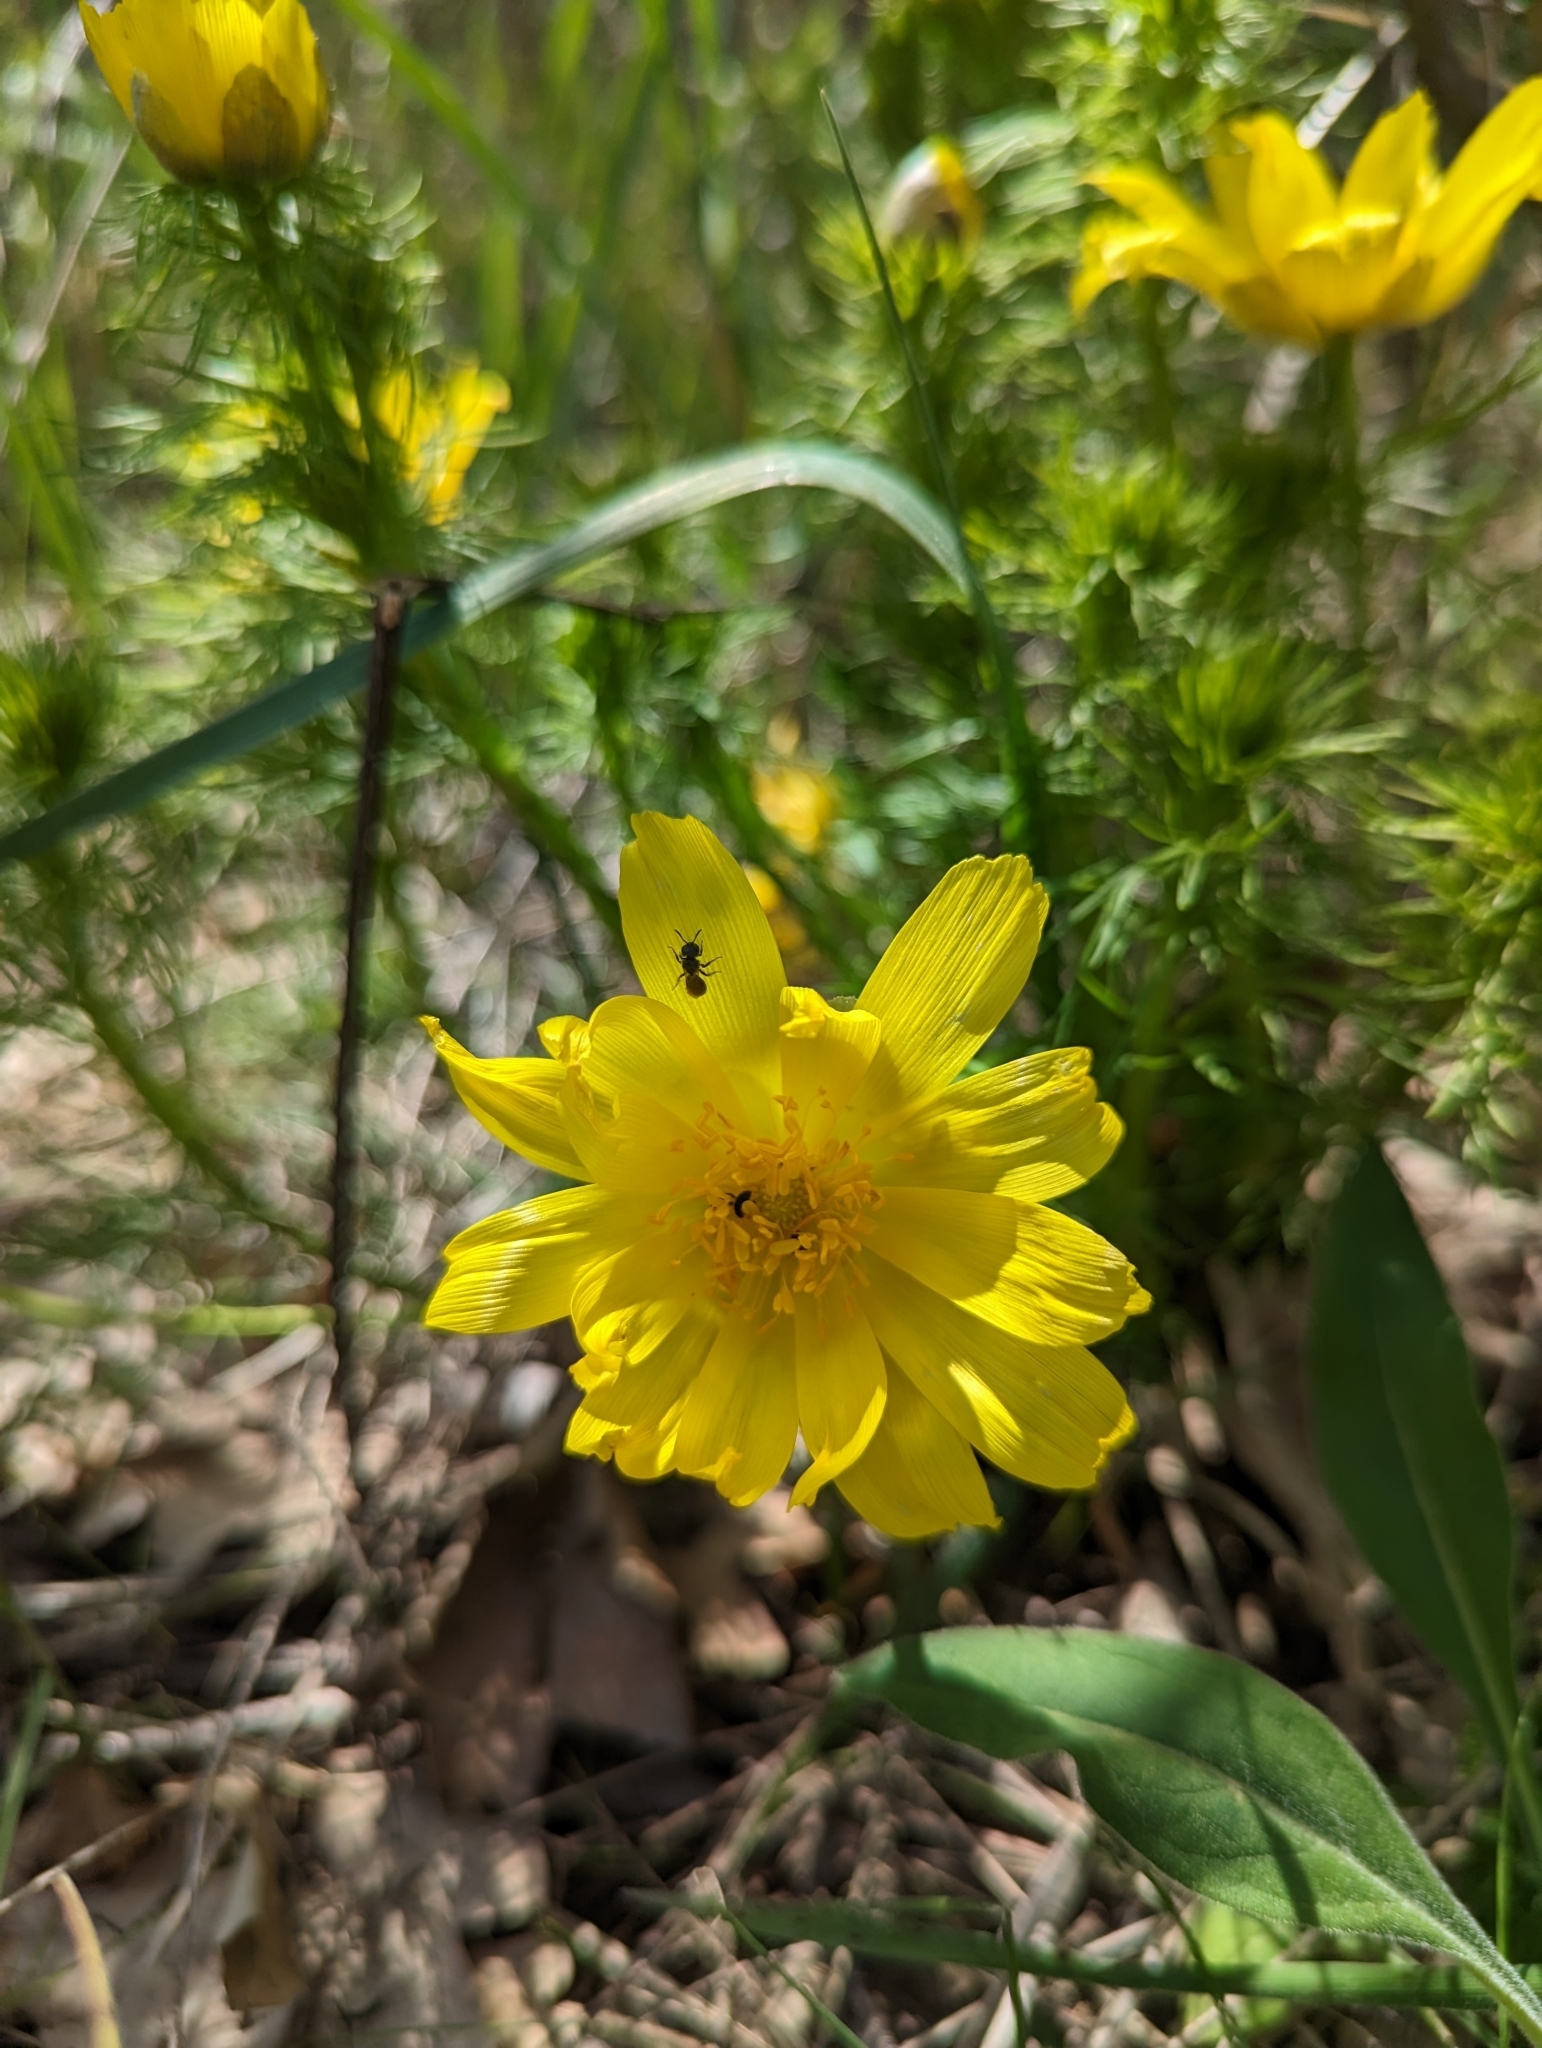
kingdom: Plantae
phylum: Tracheophyta
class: Magnoliopsida
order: Ranunculales
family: Ranunculaceae
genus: Adonis
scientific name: Adonis vernalis
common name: Yellow pheasants-eye
